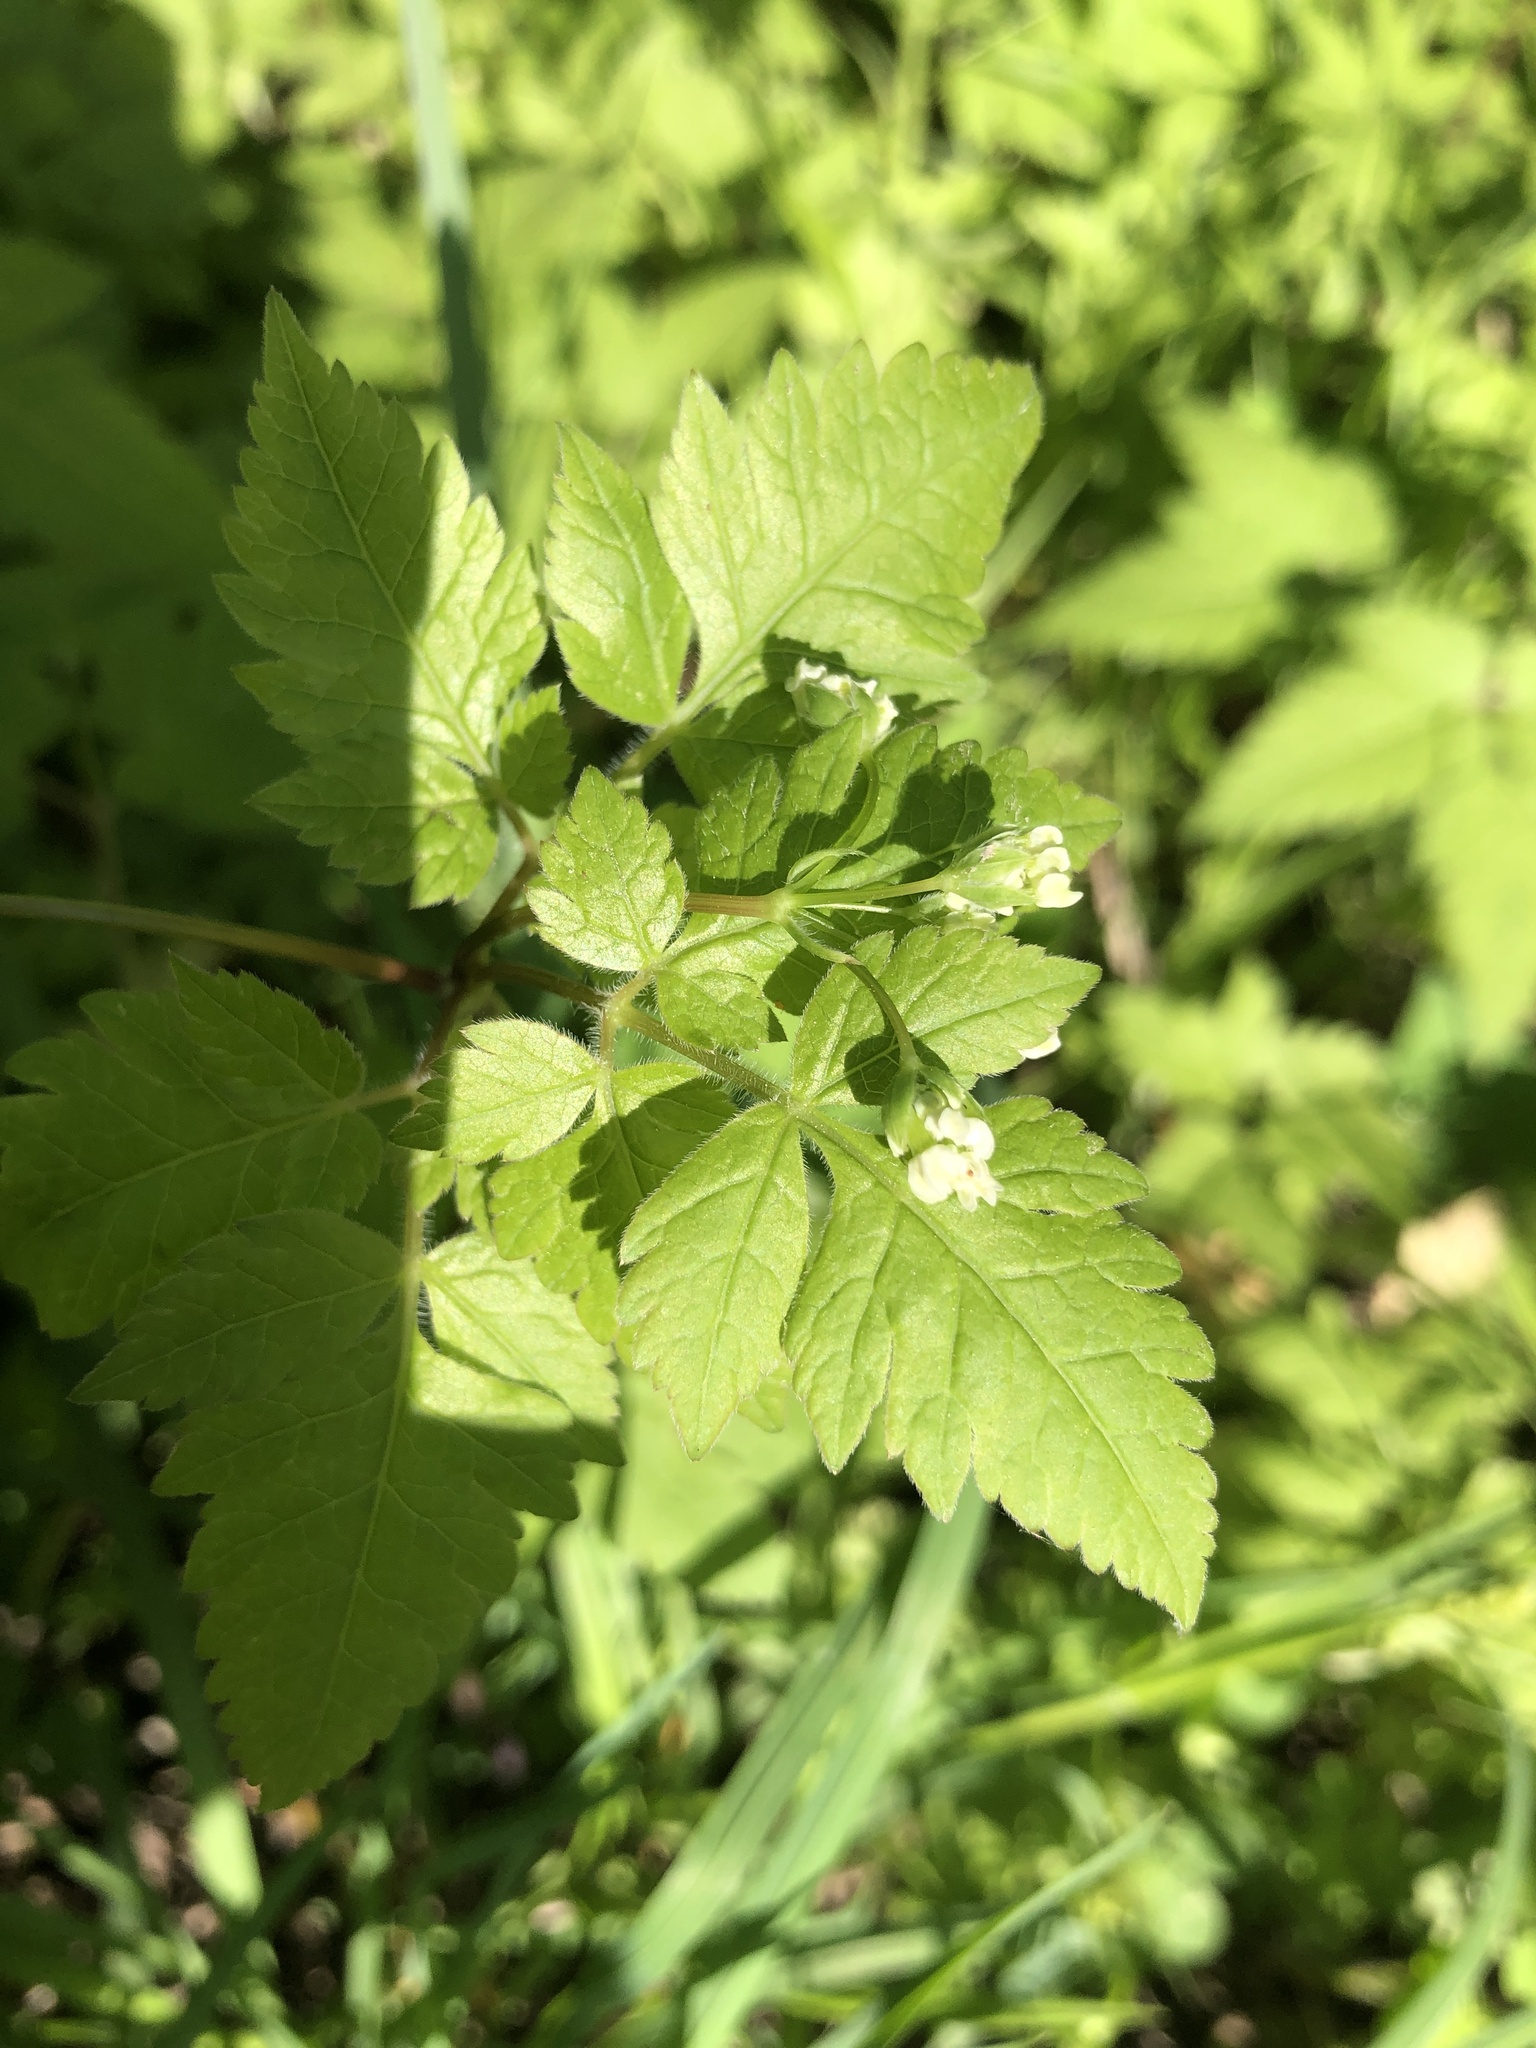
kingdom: Plantae
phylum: Tracheophyta
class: Magnoliopsida
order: Apiales
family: Apiaceae
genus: Osmorhiza
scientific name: Osmorhiza longistylis
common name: Smooth sweet cicely
